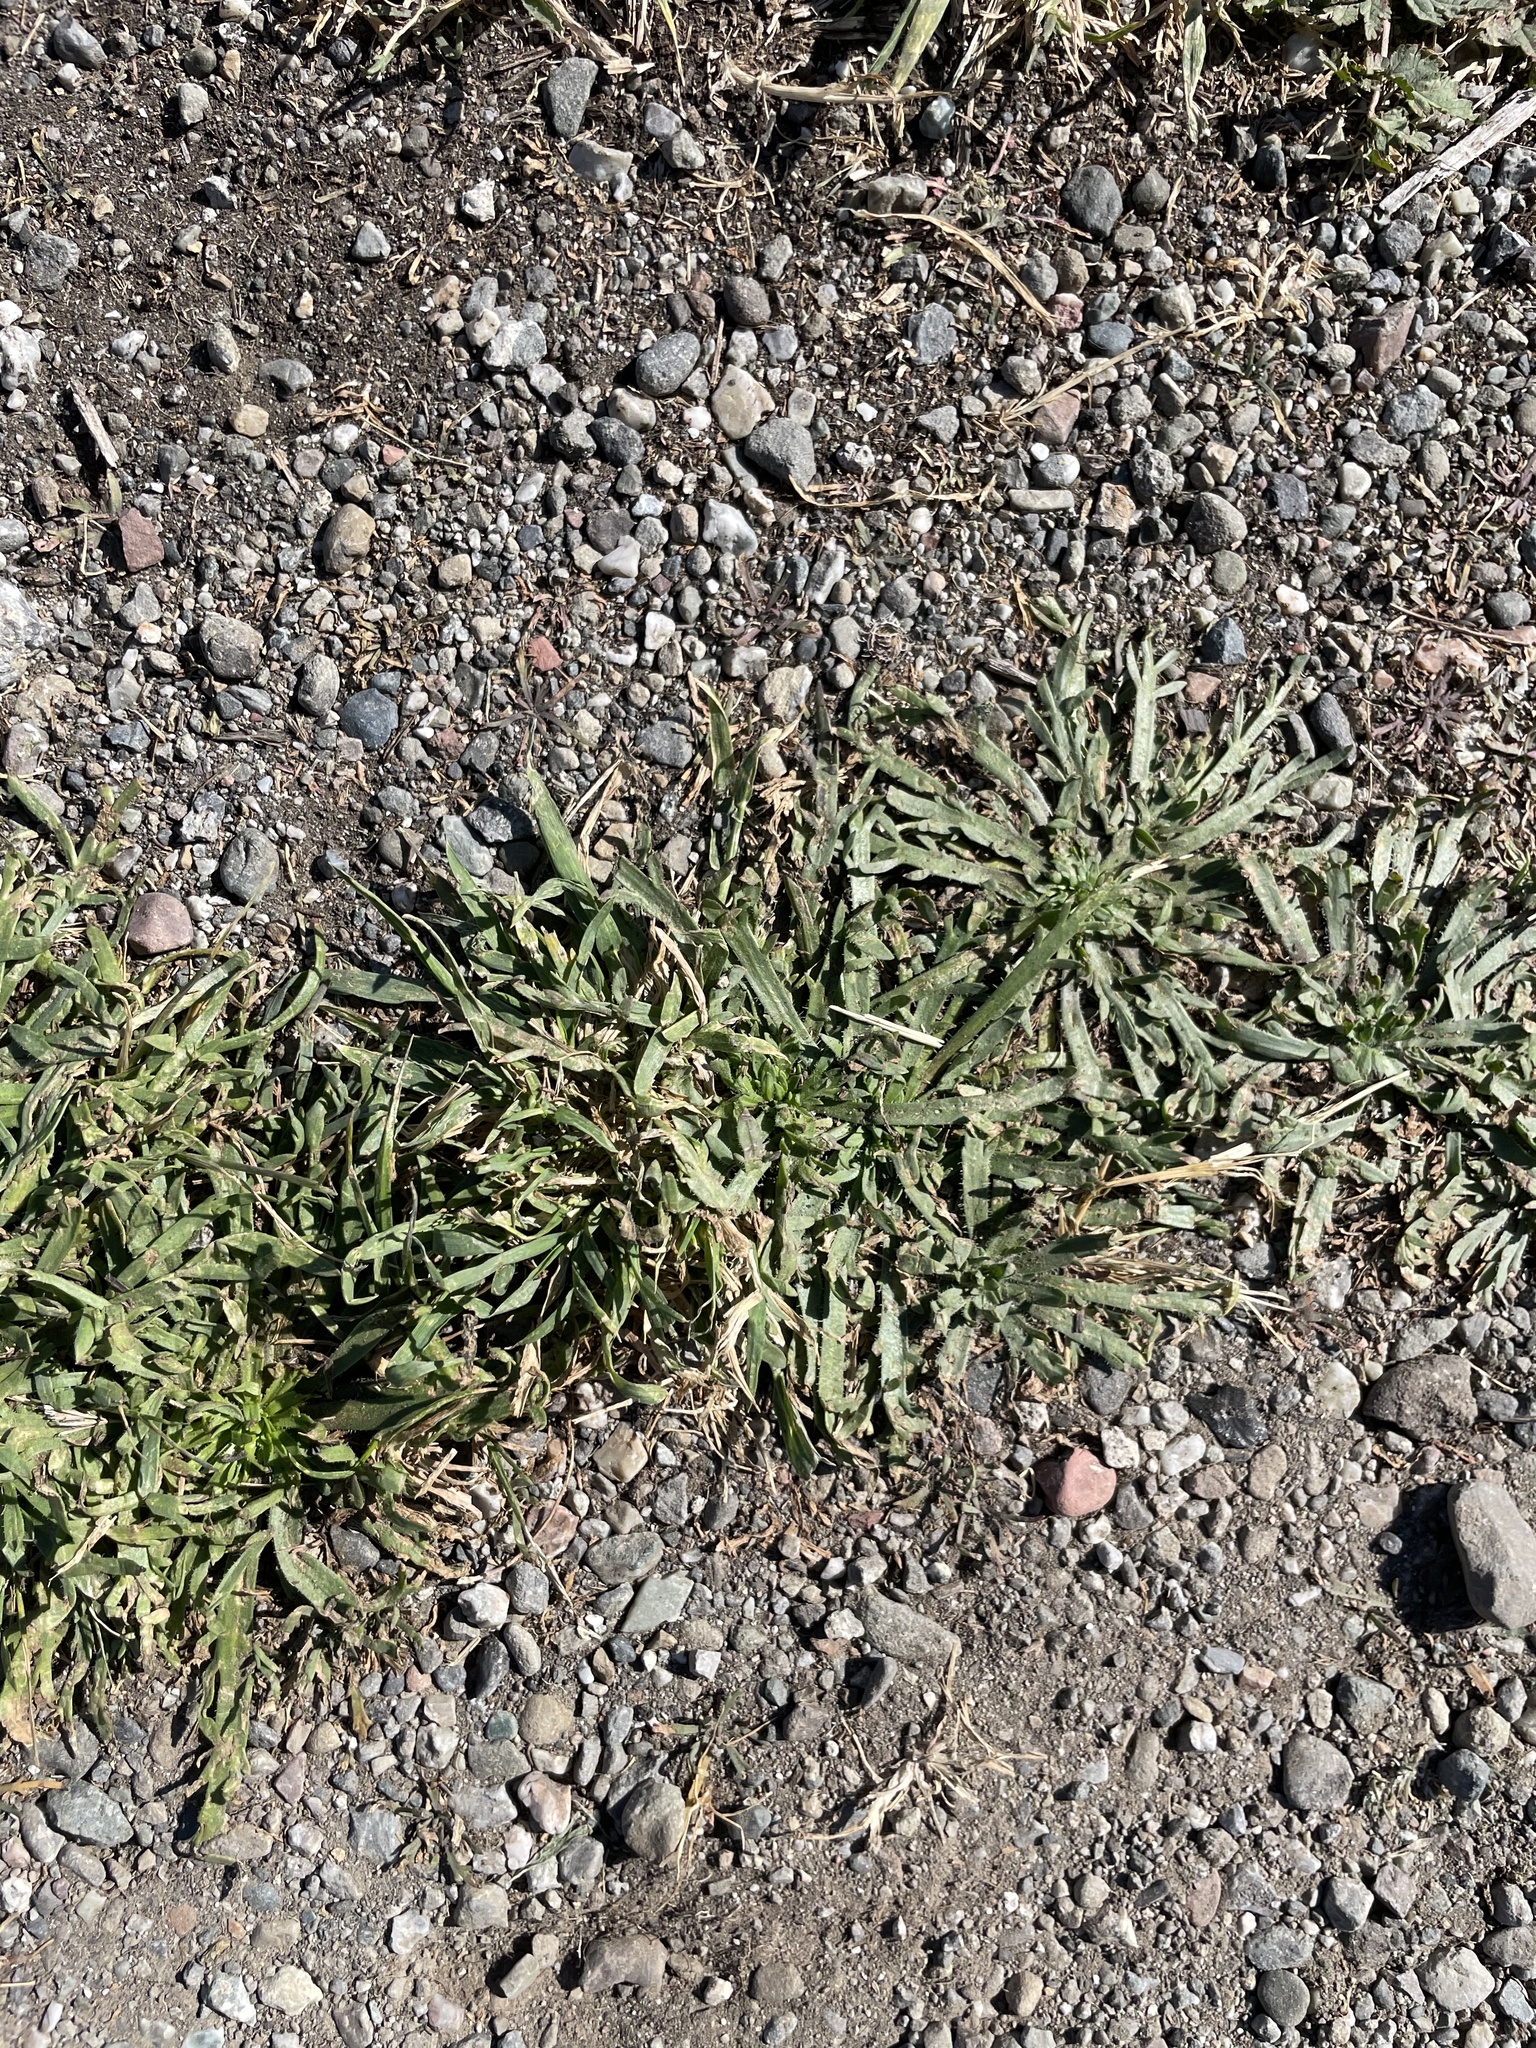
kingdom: Plantae
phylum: Tracheophyta
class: Magnoliopsida
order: Lamiales
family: Plantaginaceae
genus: Plantago
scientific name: Plantago coronopus
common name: Buck's-horn plantain
